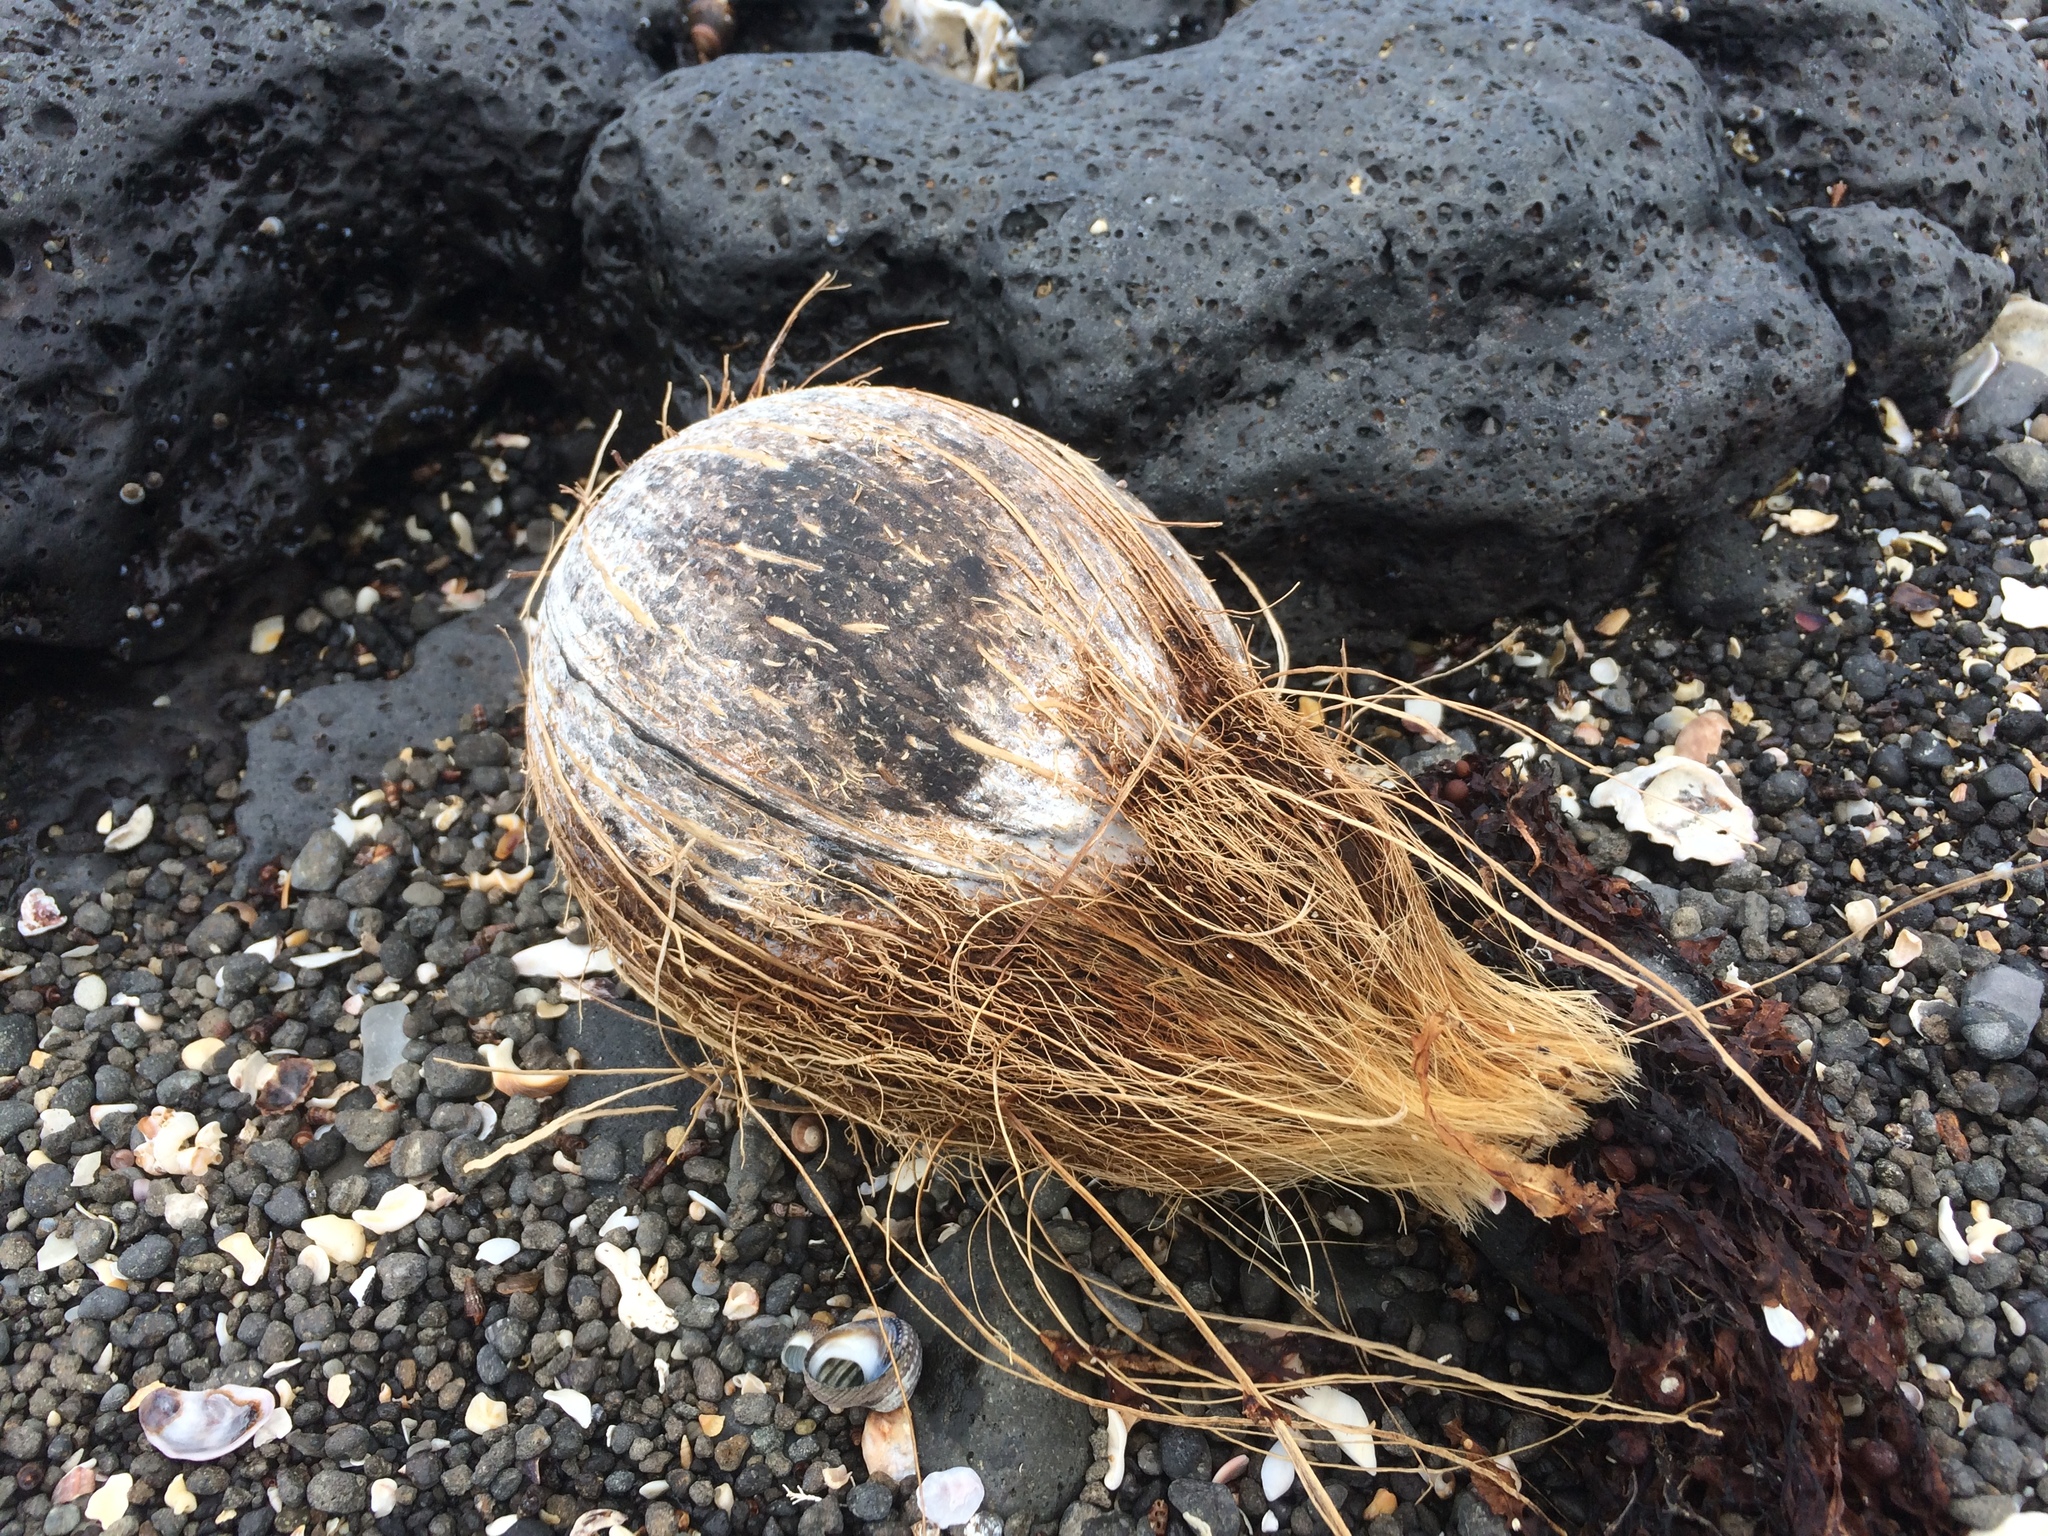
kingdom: Plantae
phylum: Tracheophyta
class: Liliopsida
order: Arecales
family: Arecaceae
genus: Cocos
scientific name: Cocos nucifera
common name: Coconut palm
